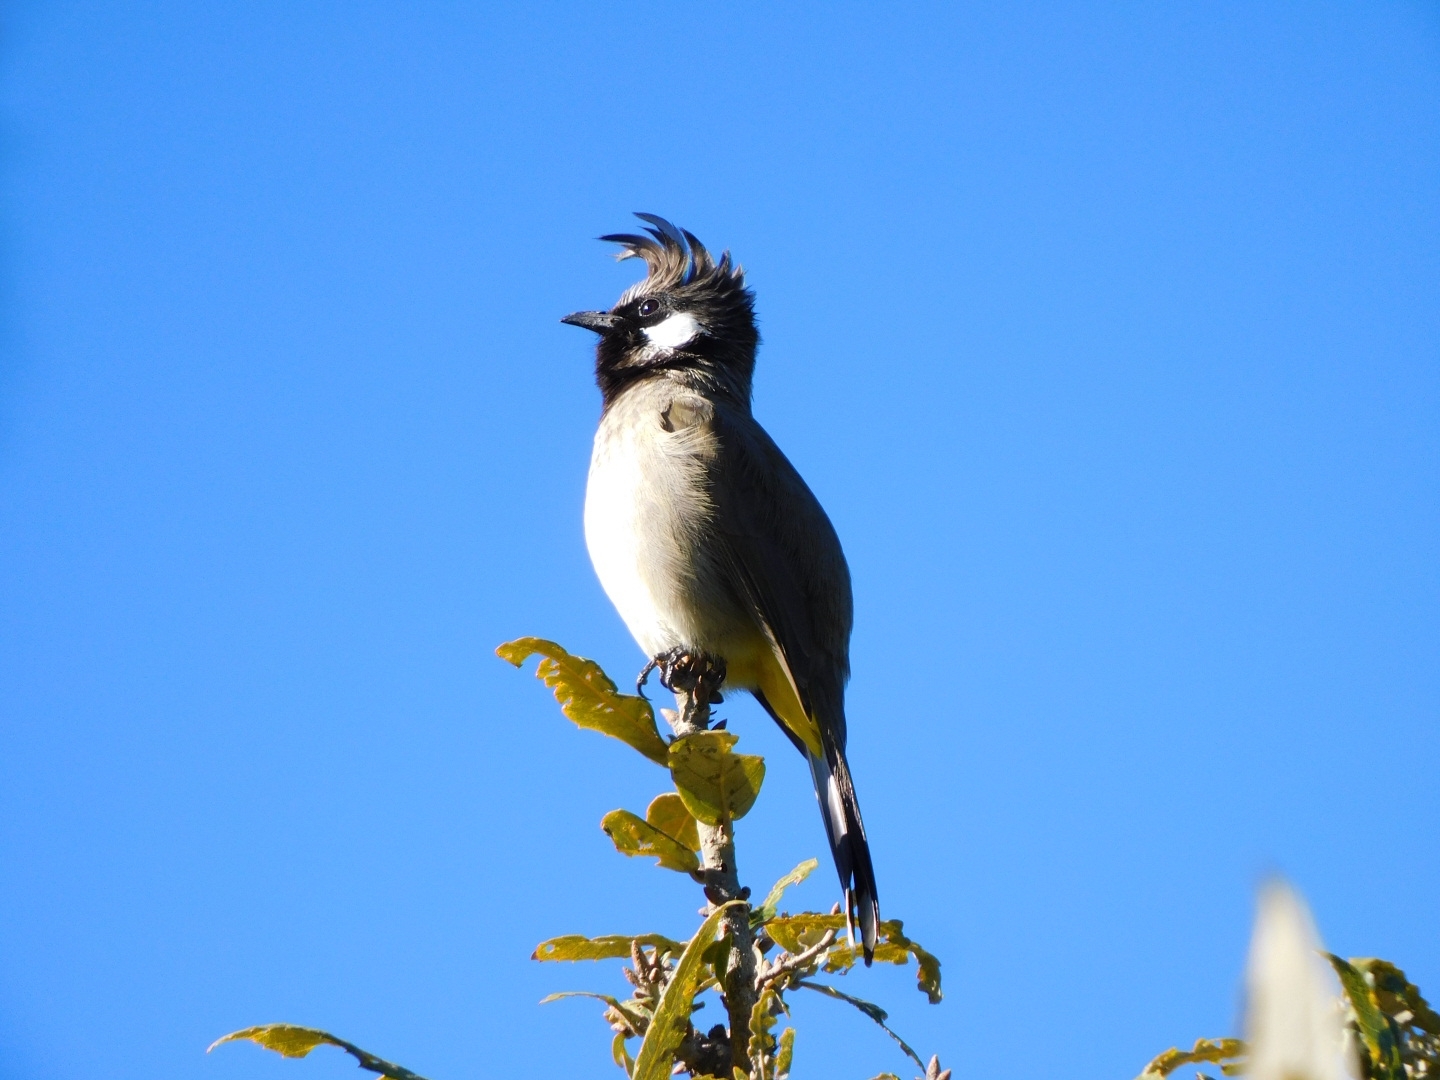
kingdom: Animalia
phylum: Chordata
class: Aves
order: Passeriformes
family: Pycnonotidae
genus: Pycnonotus
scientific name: Pycnonotus leucogenys
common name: Himalayan bulbul
